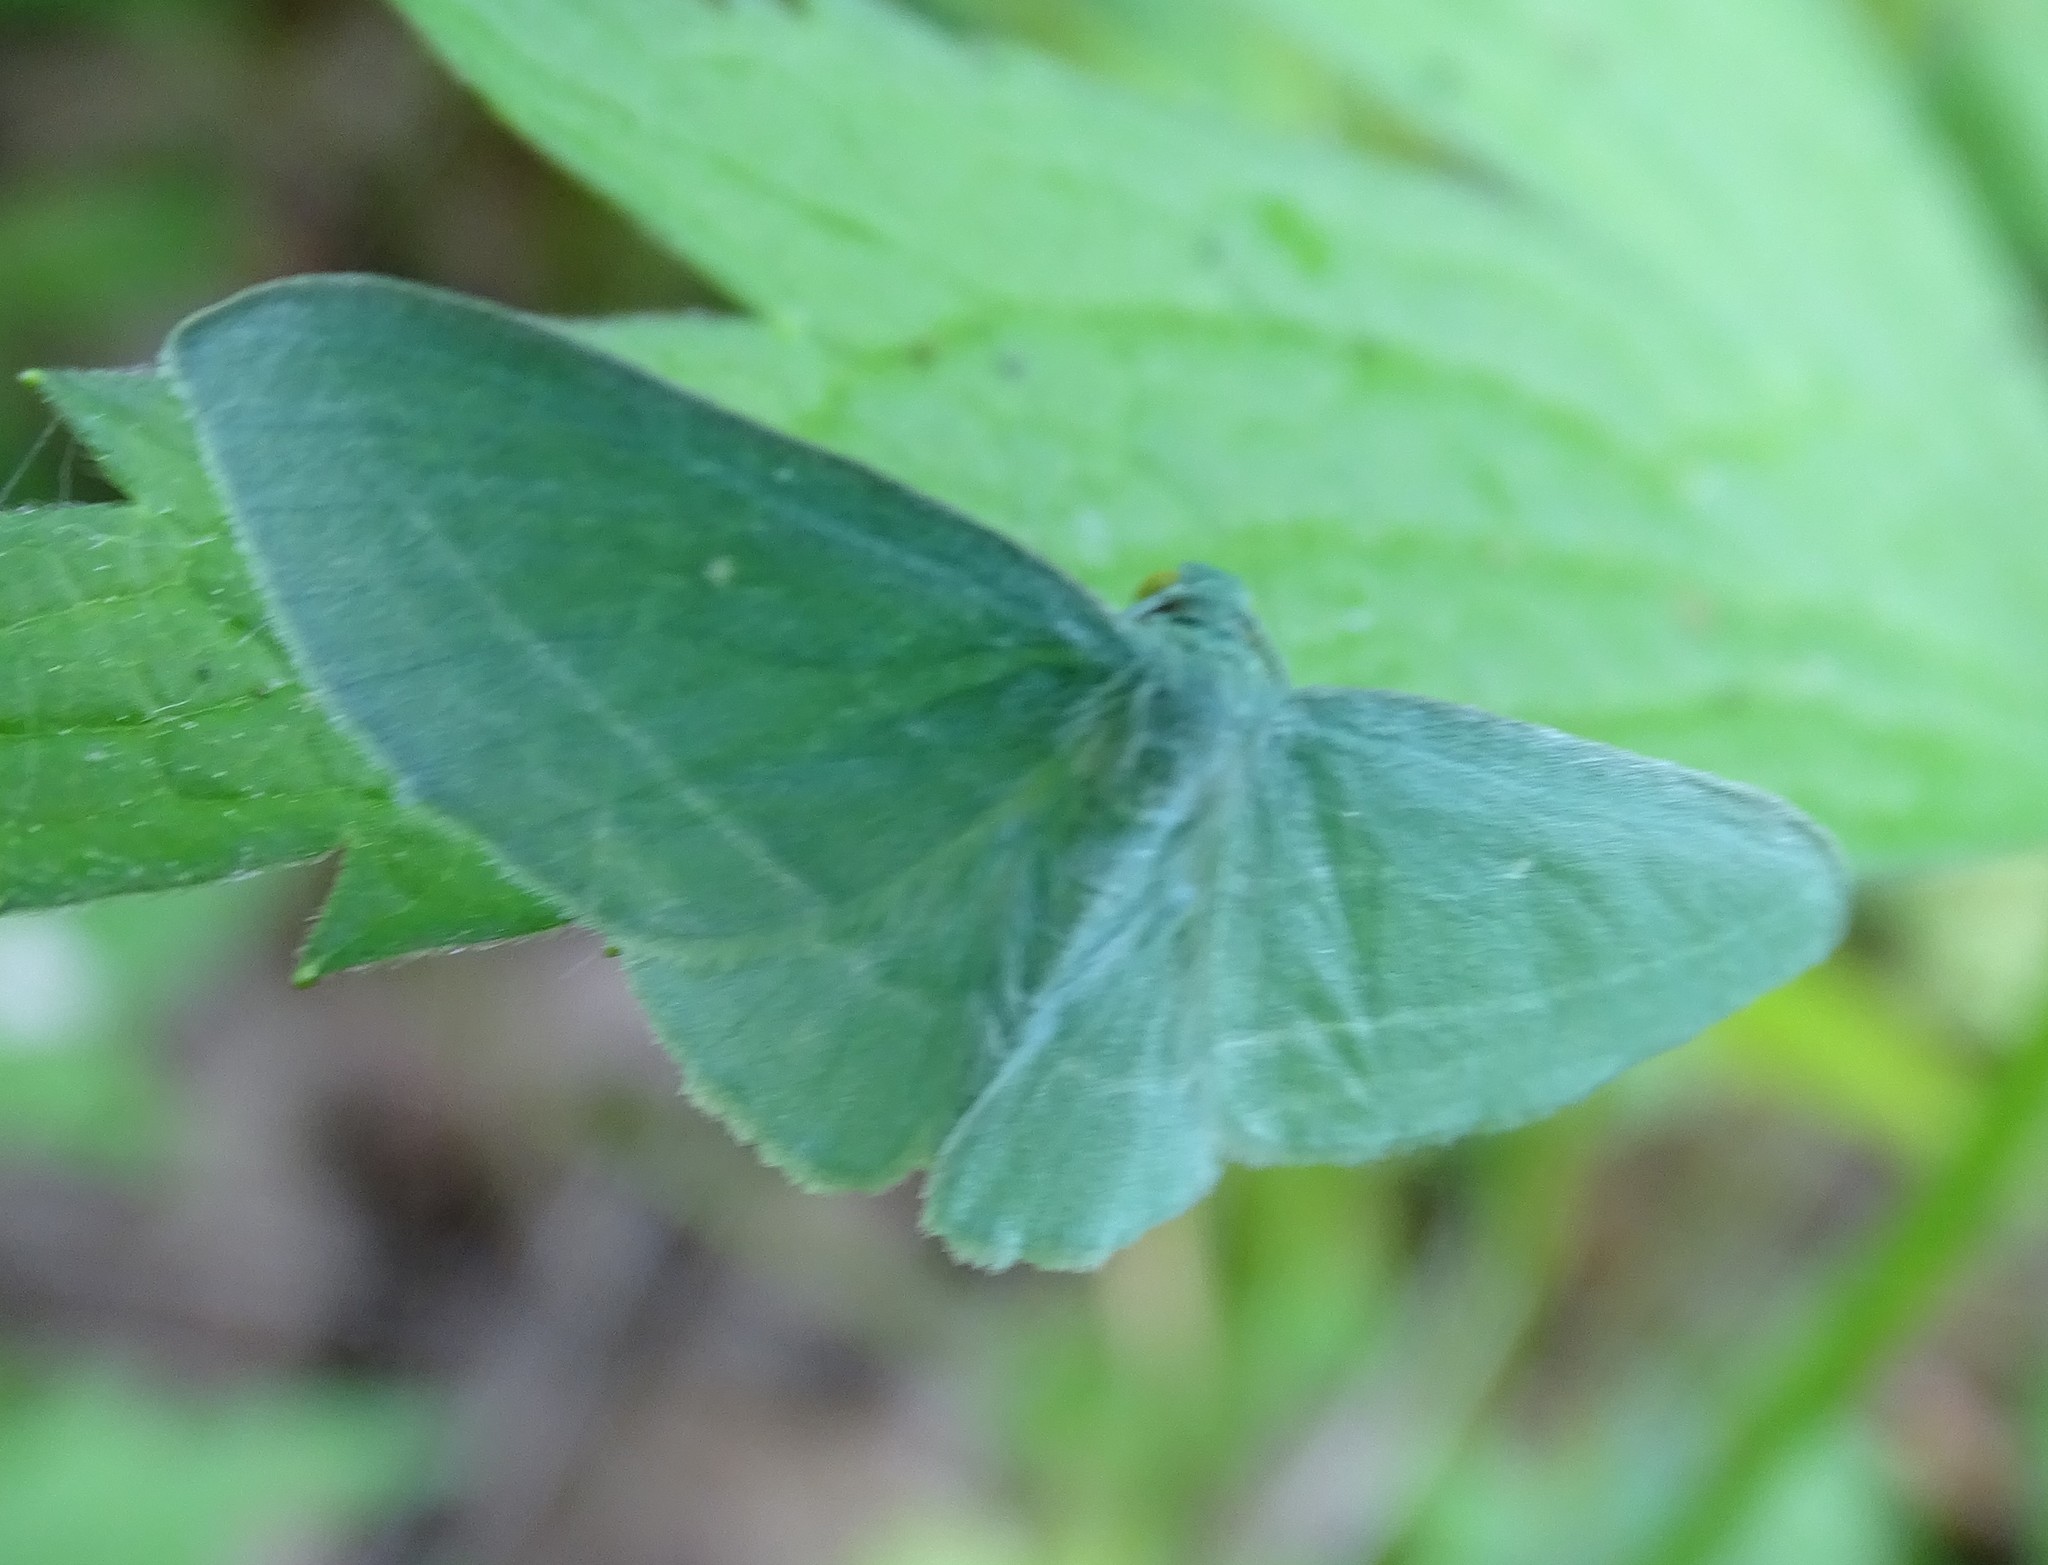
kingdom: Animalia
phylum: Arthropoda
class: Insecta
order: Lepidoptera
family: Geometridae
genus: Dyspteris
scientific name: Dyspteris abortivaria
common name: Bad-wing
